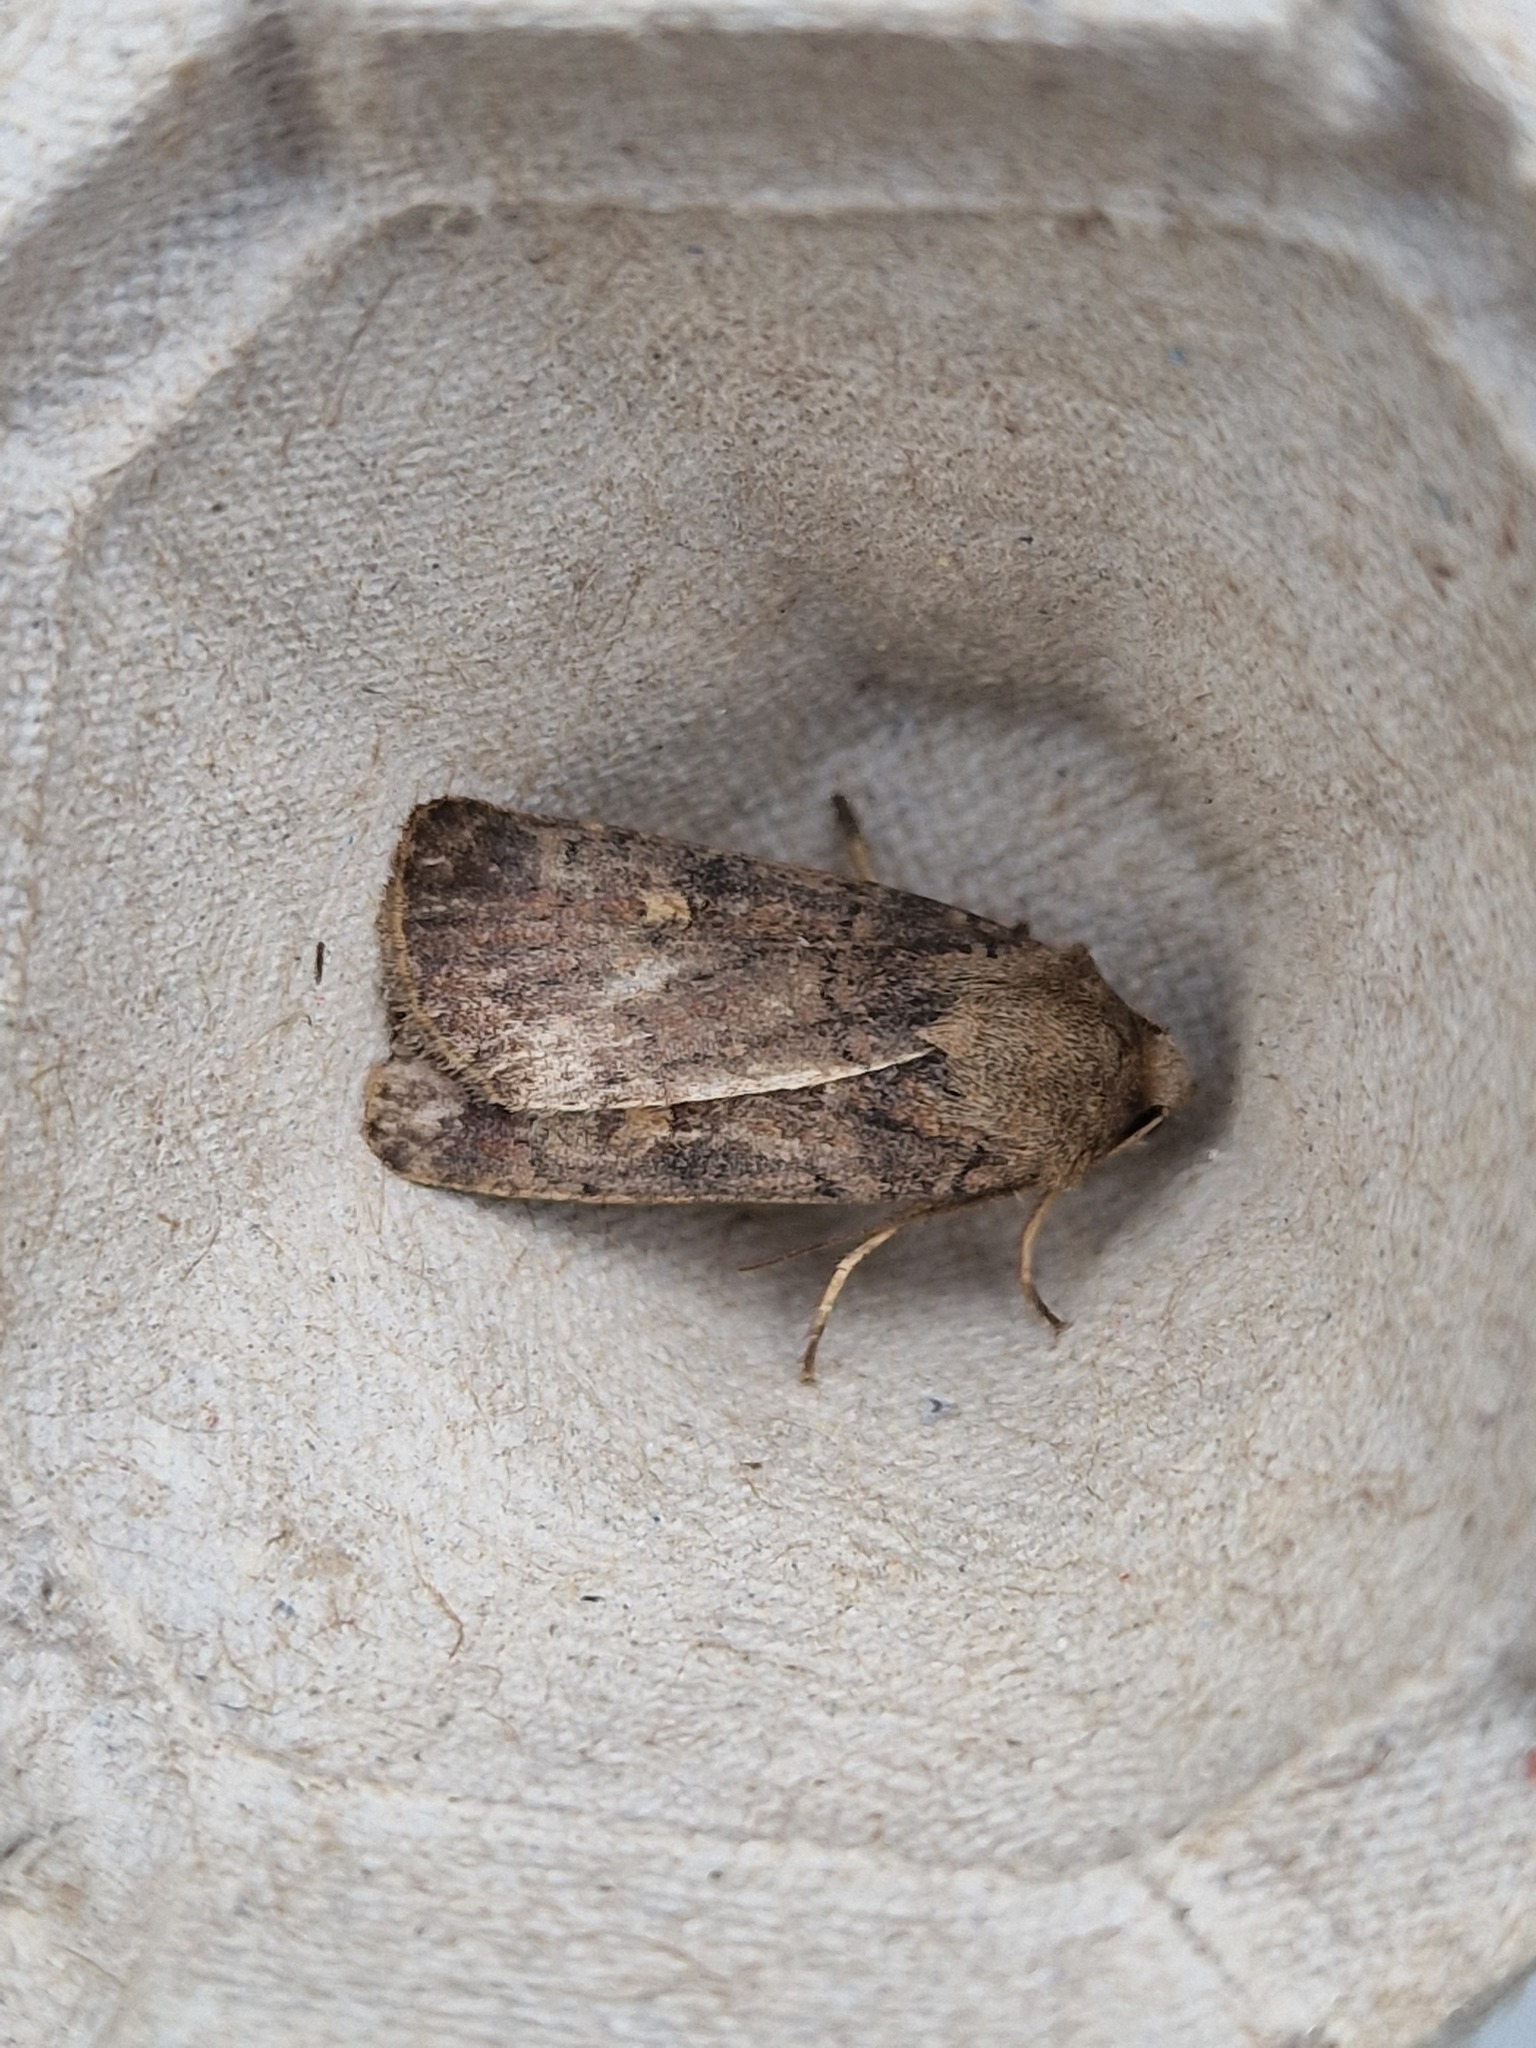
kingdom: Animalia
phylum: Arthropoda
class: Insecta
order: Lepidoptera
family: Noctuidae
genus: Xestia
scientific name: Xestia xanthographa
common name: Square-spot rustic
